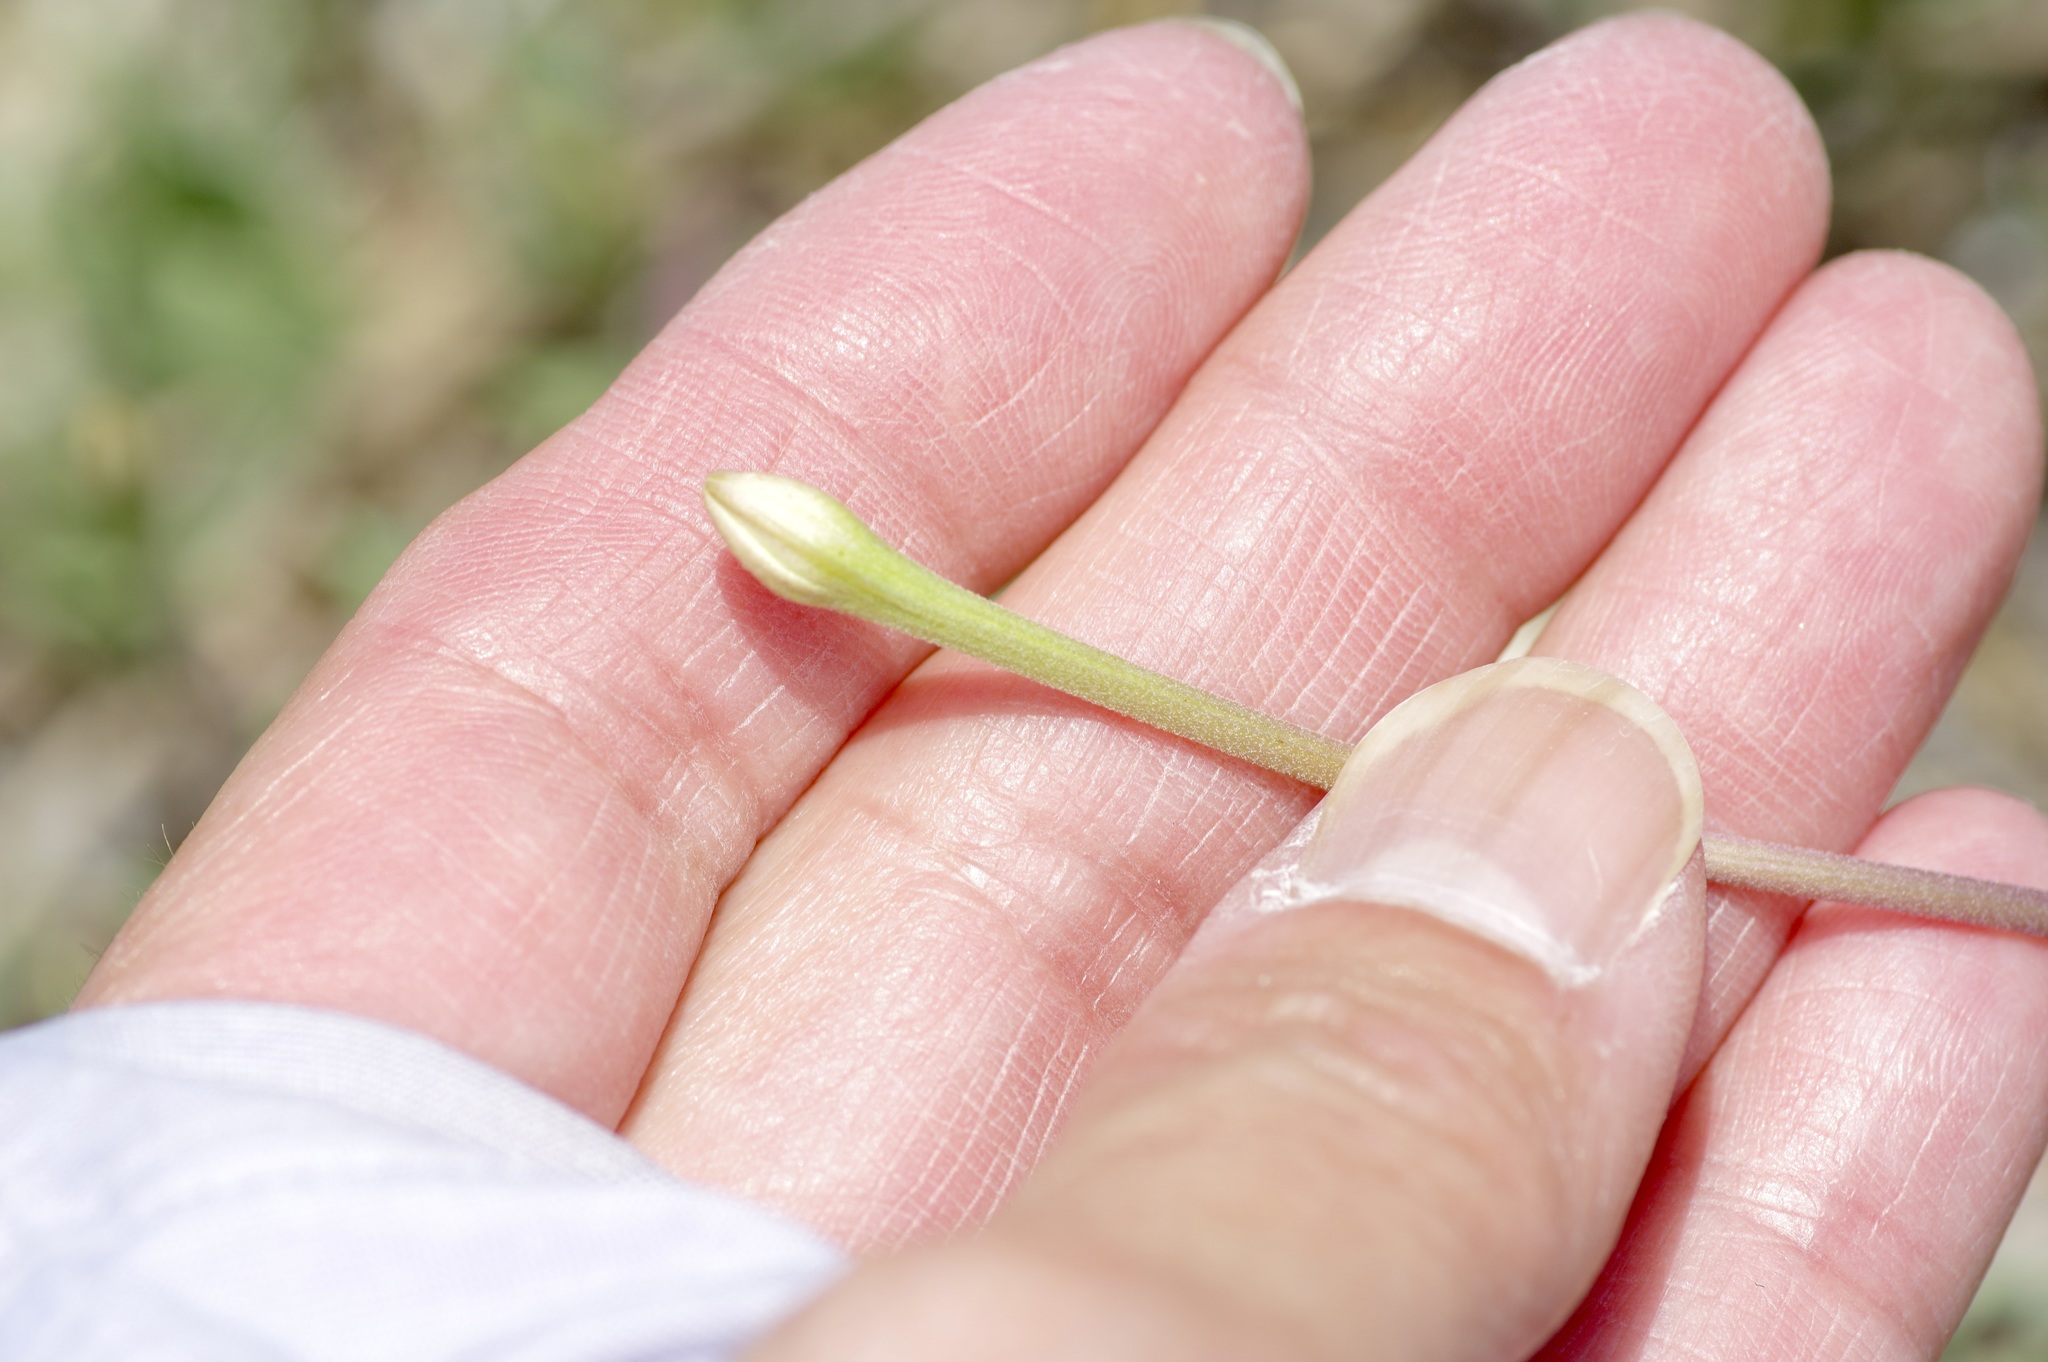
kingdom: Plantae
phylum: Tracheophyta
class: Magnoliopsida
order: Caryophyllales
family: Nyctaginaceae
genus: Acleisanthes
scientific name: Acleisanthes longiflora
